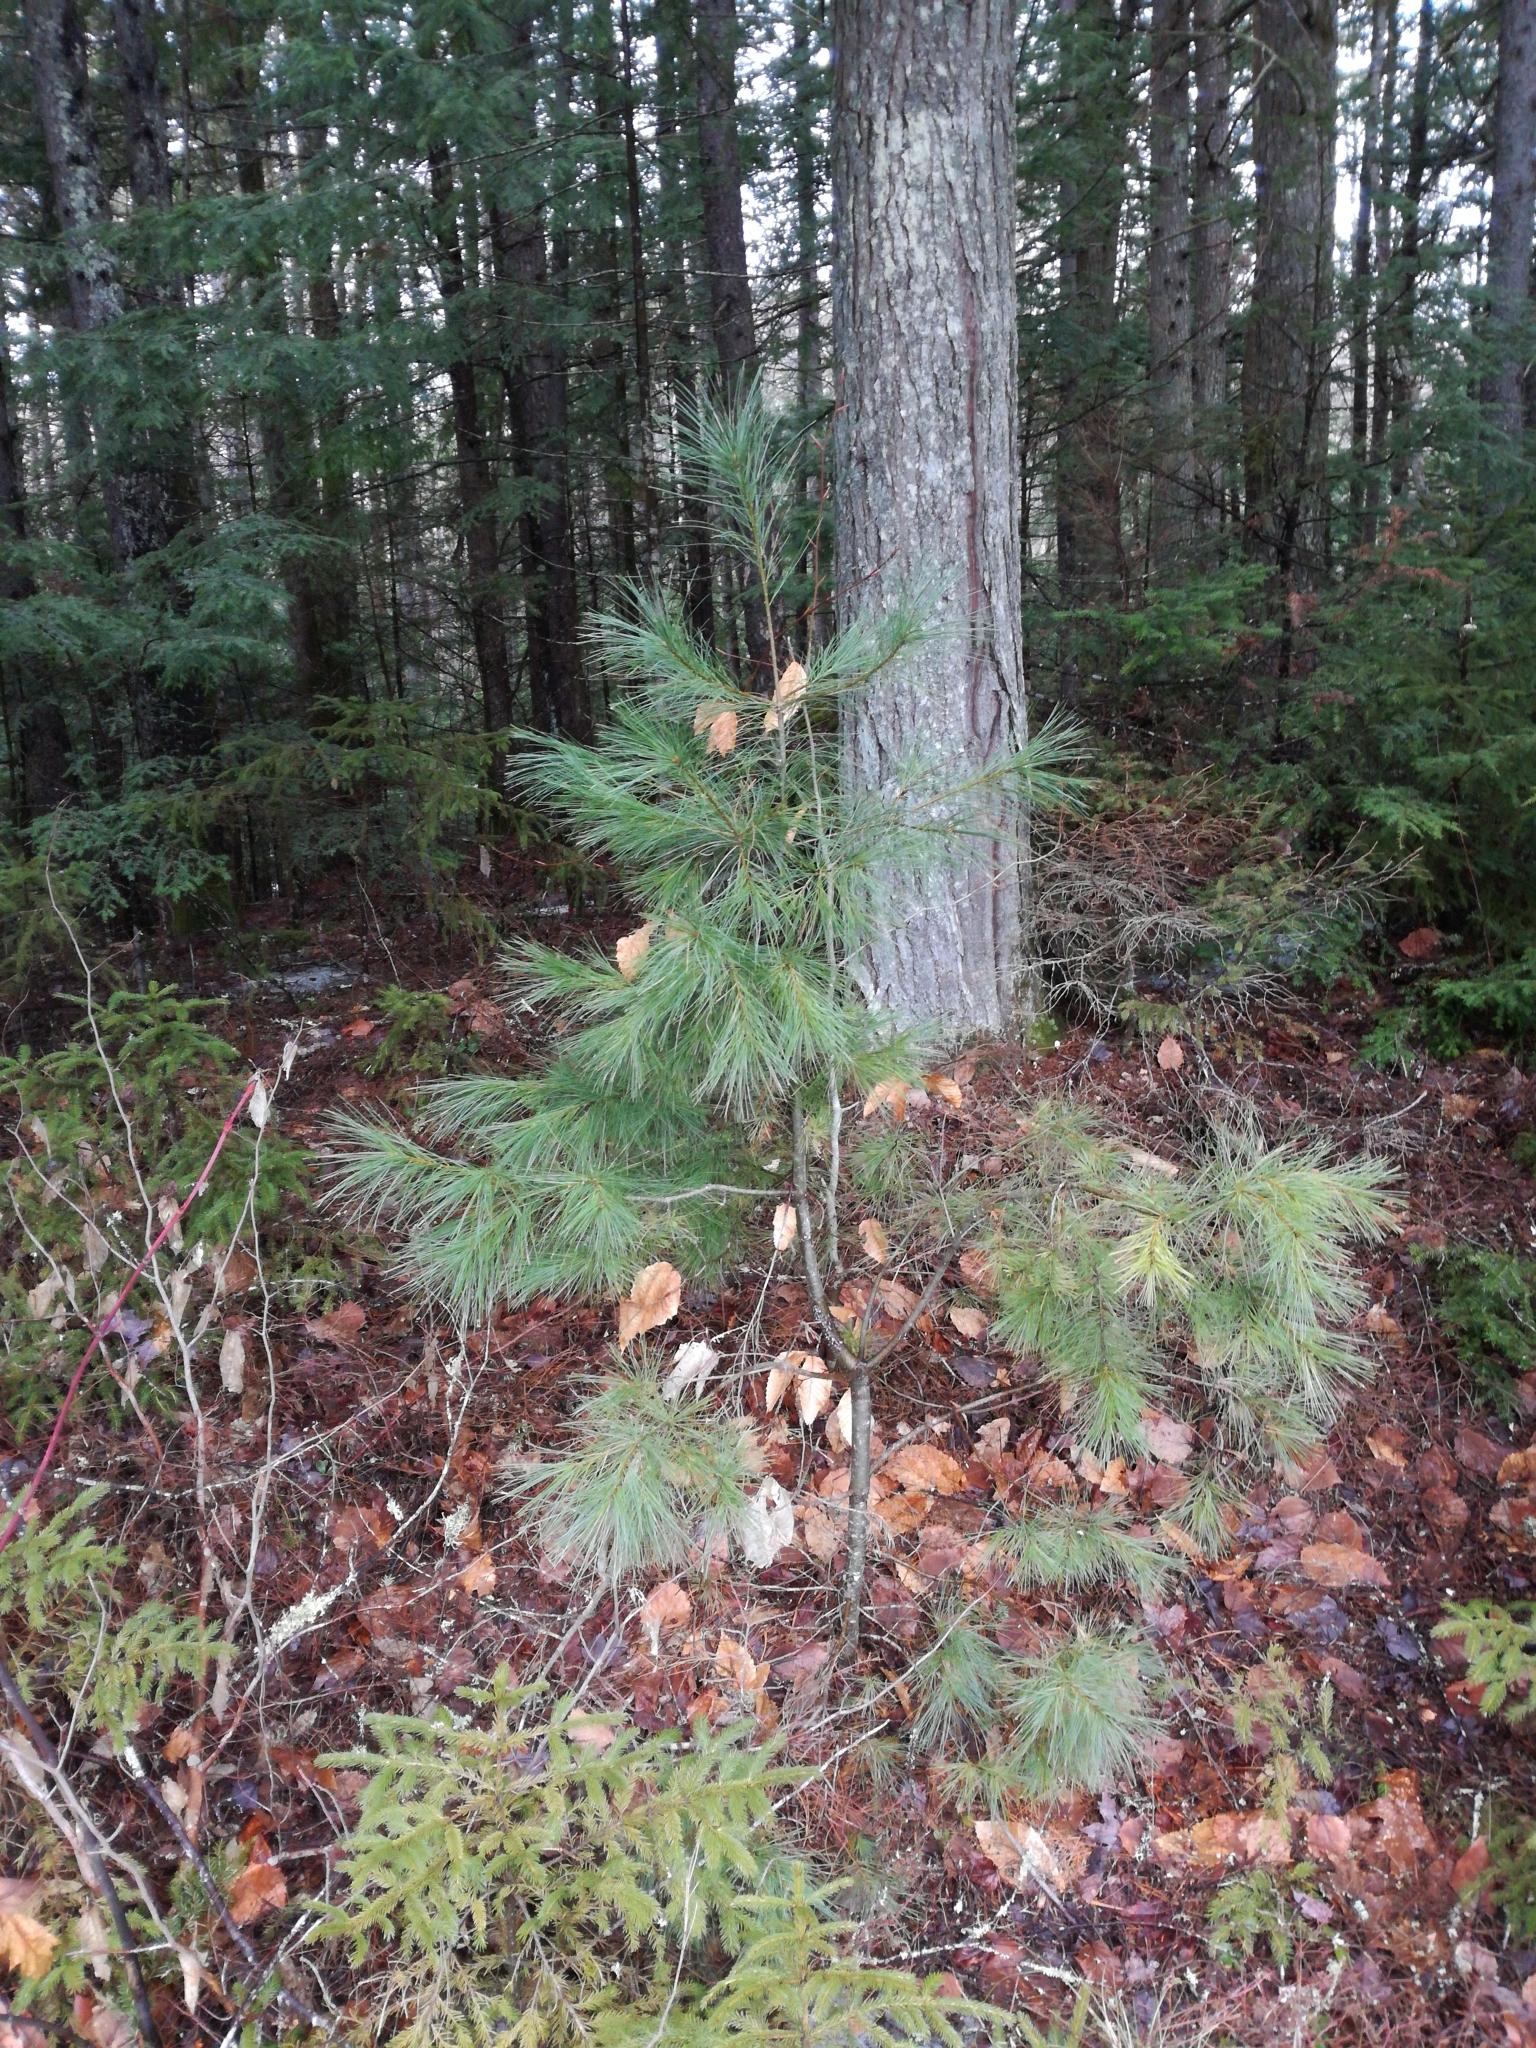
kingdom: Plantae
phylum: Tracheophyta
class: Pinopsida
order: Pinales
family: Pinaceae
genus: Pinus
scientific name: Pinus strobus
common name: Weymouth pine
